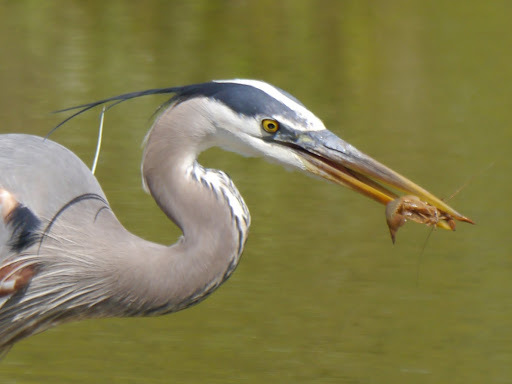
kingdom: Animalia
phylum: Chordata
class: Aves
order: Pelecaniformes
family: Ardeidae
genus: Ardea
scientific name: Ardea herodias
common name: Great blue heron
